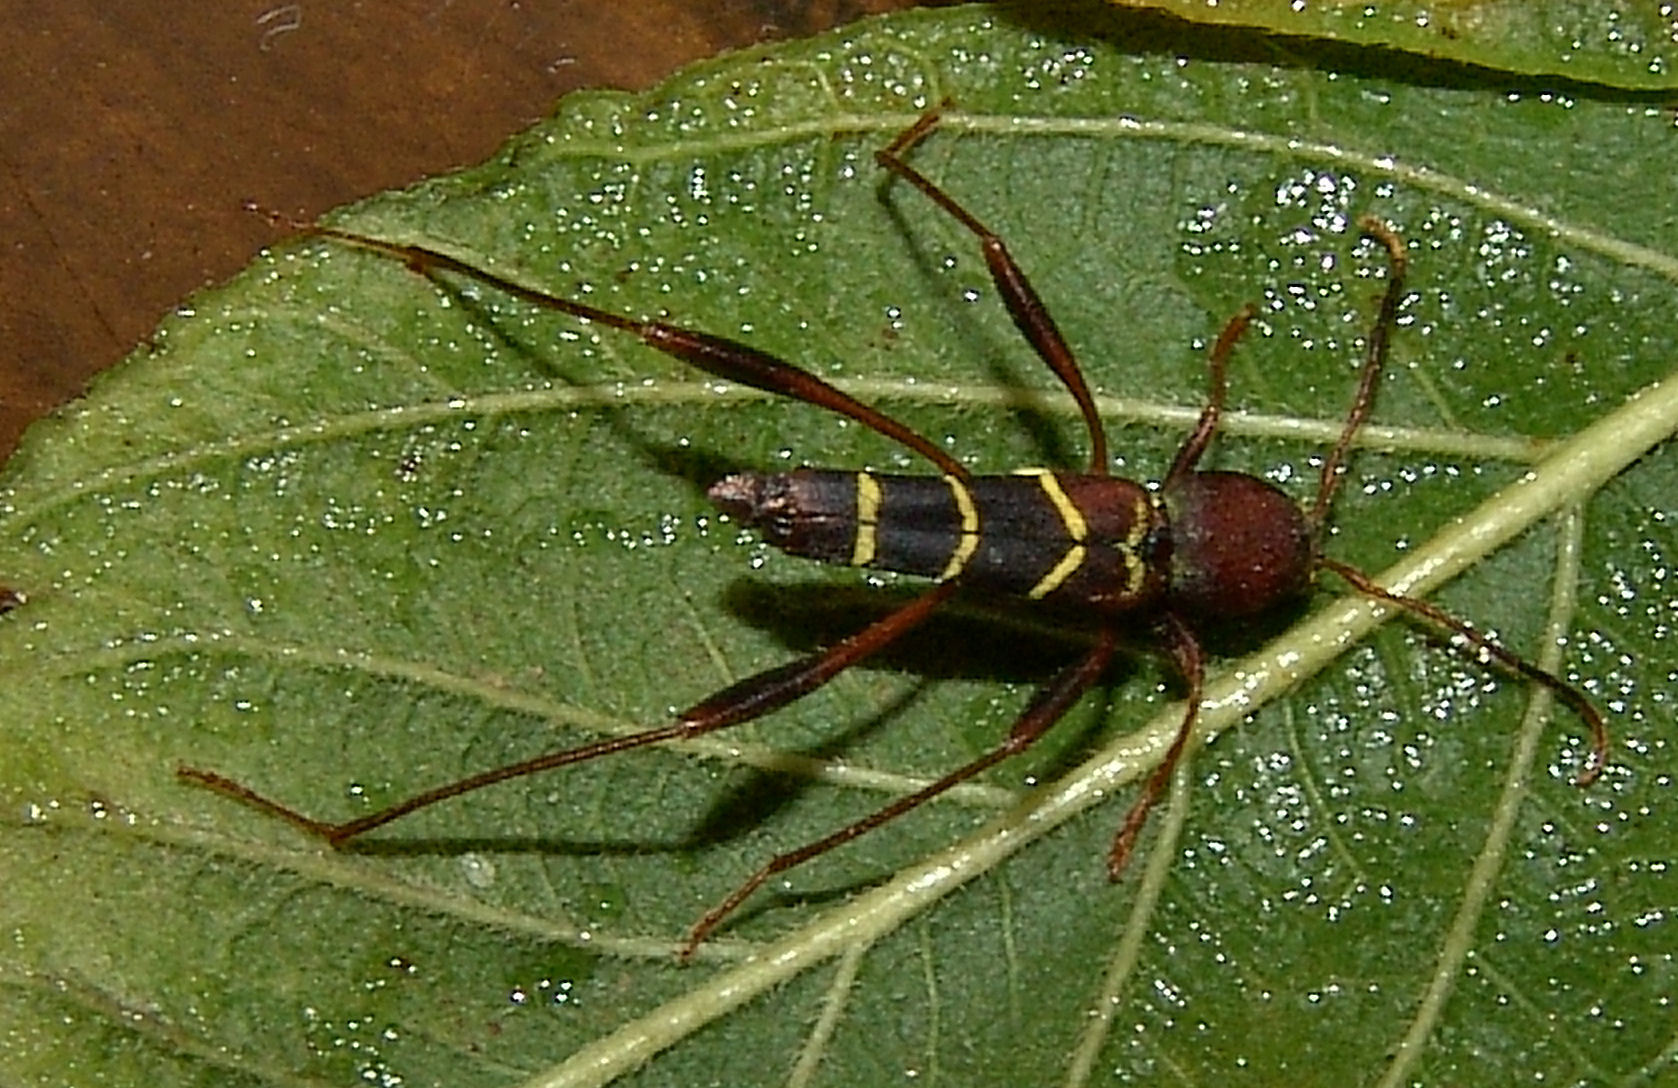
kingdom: Animalia
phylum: Arthropoda
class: Insecta
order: Coleoptera
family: Cerambycidae
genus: Neoclytus
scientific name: Neoclytus acuminatus
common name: Read-headed ash borer
